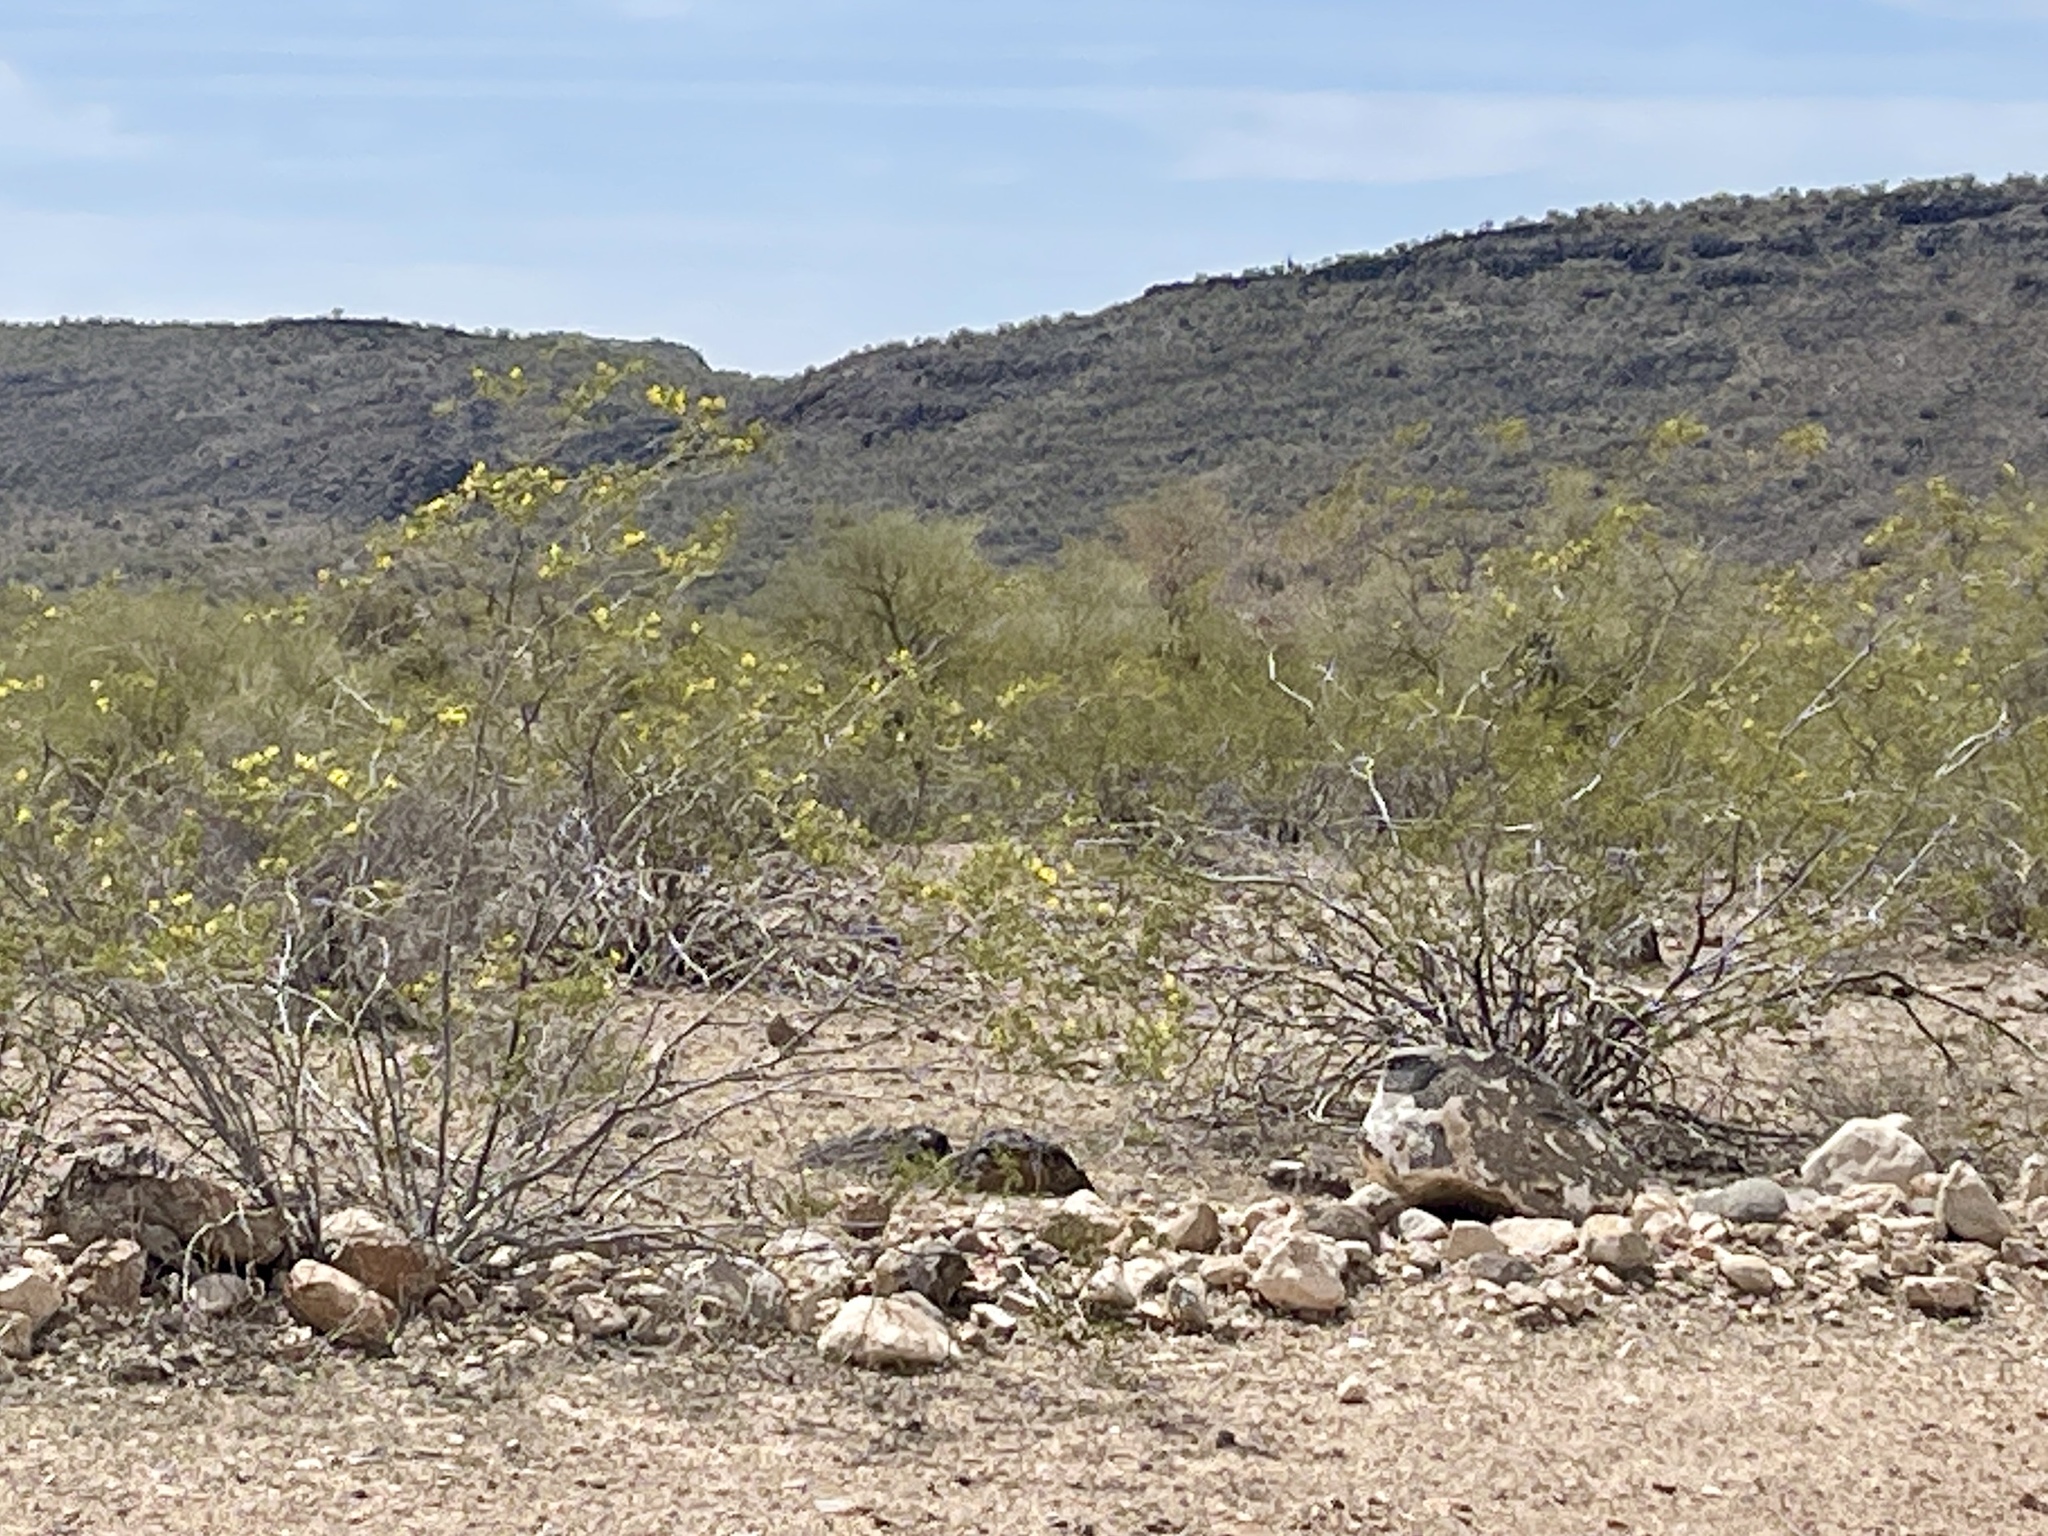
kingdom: Plantae
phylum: Tracheophyta
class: Magnoliopsida
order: Zygophyllales
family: Zygophyllaceae
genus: Larrea
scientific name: Larrea tridentata
